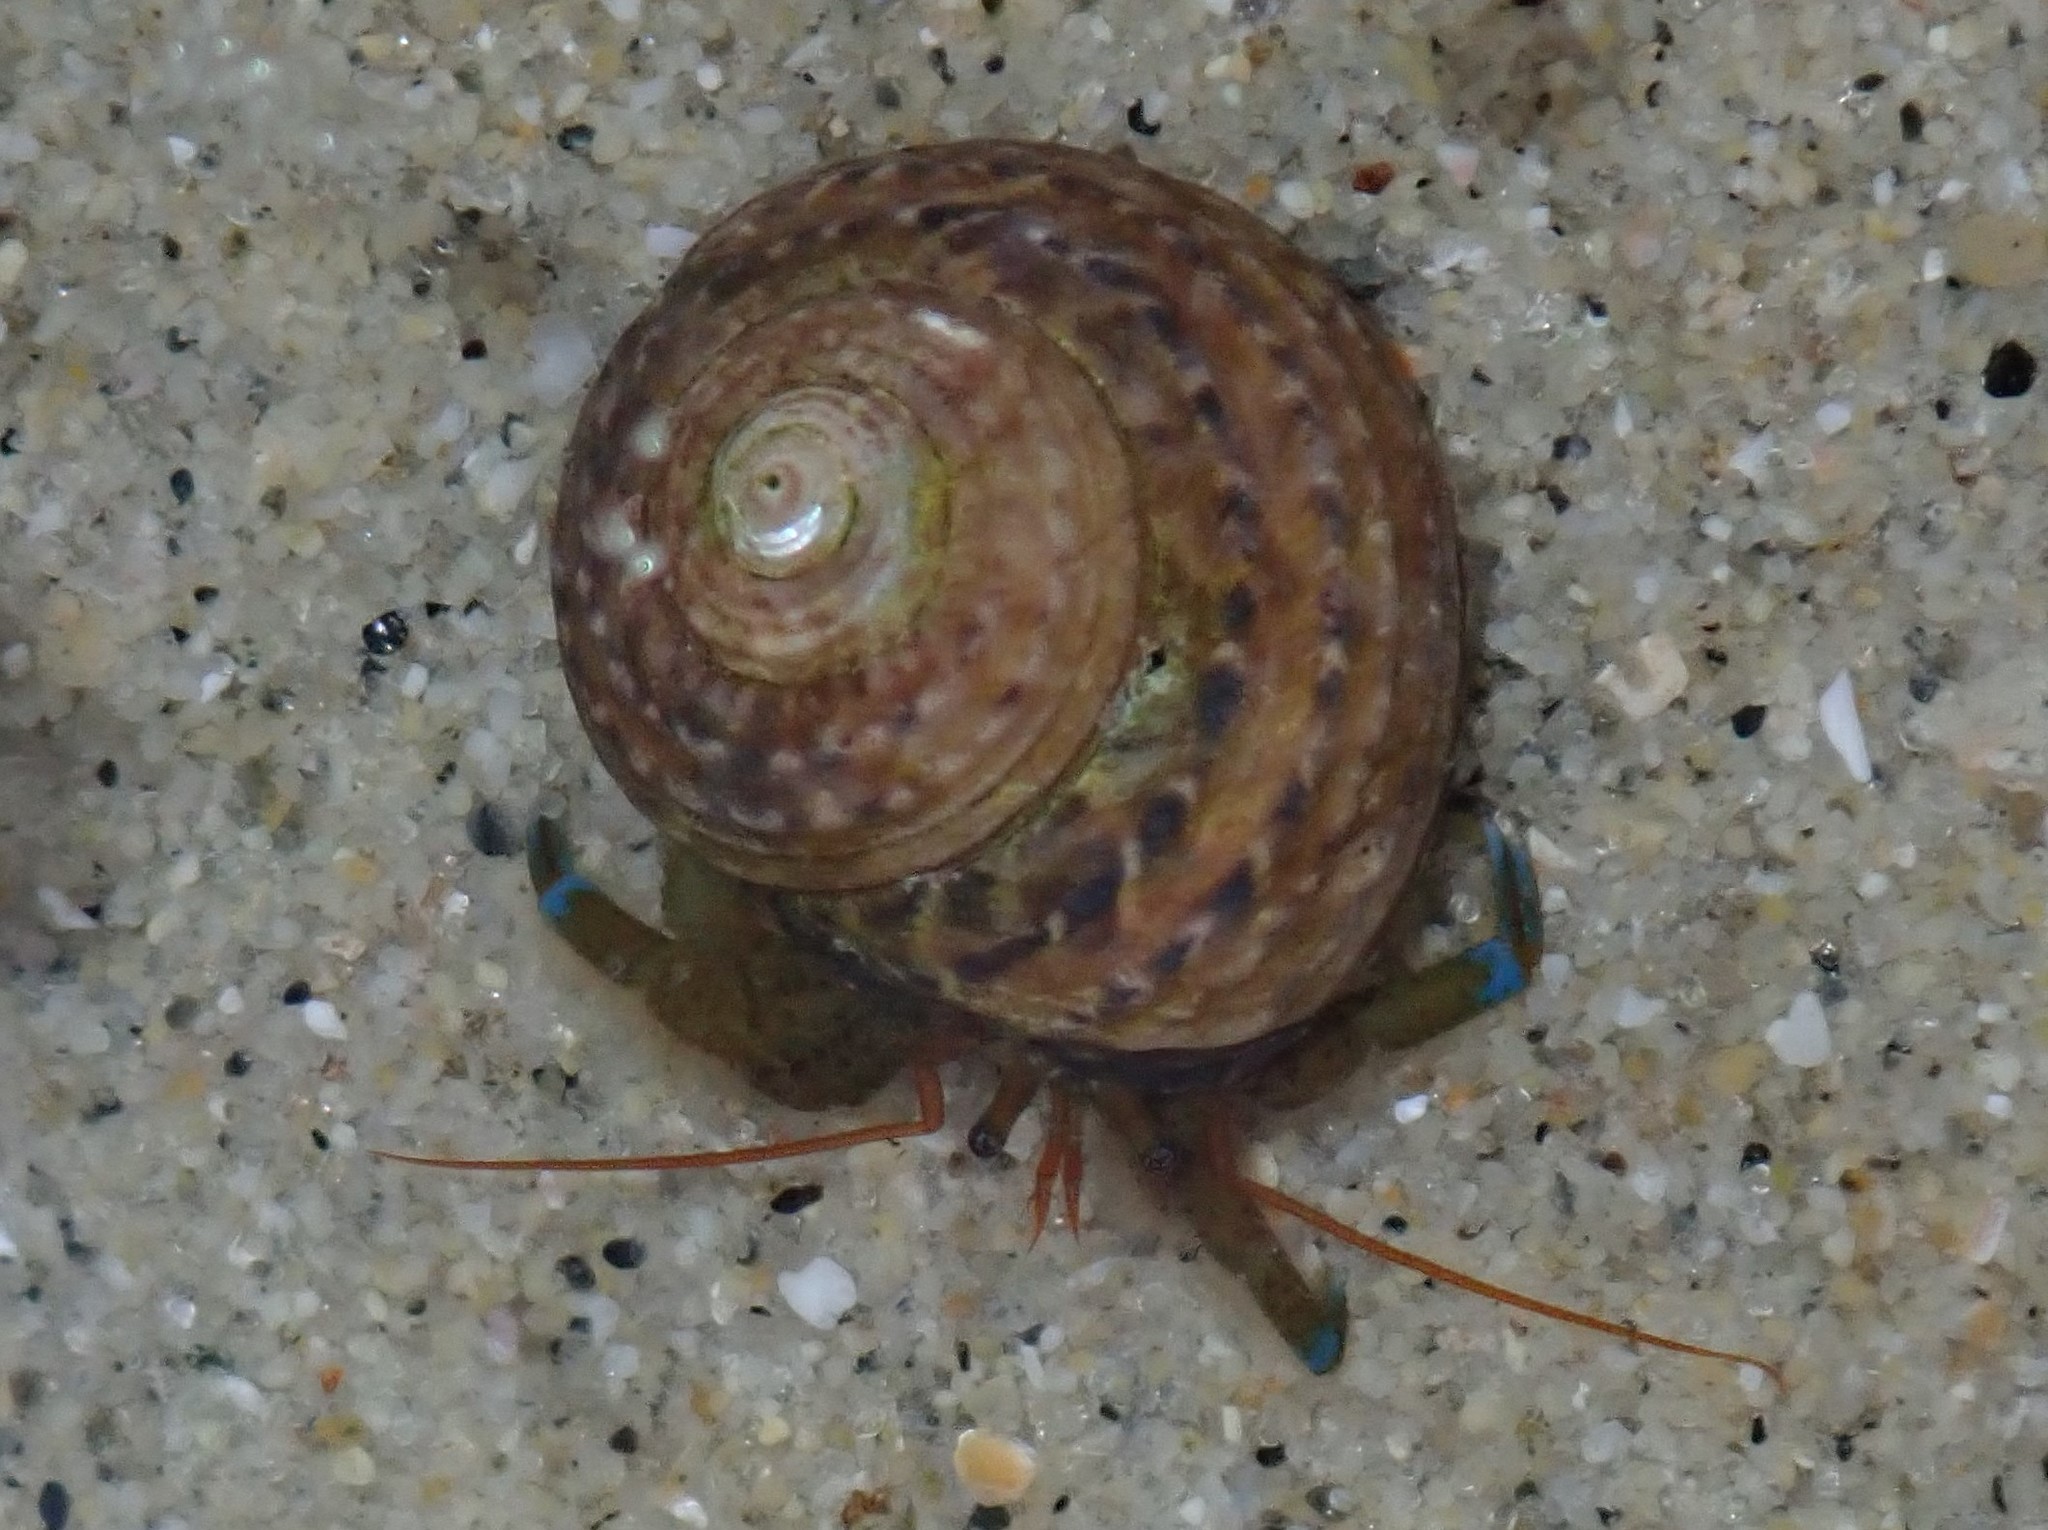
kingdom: Animalia
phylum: Arthropoda
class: Malacostraca
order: Decapoda
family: Paguridae
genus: Pagurus
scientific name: Pagurus samuelis
